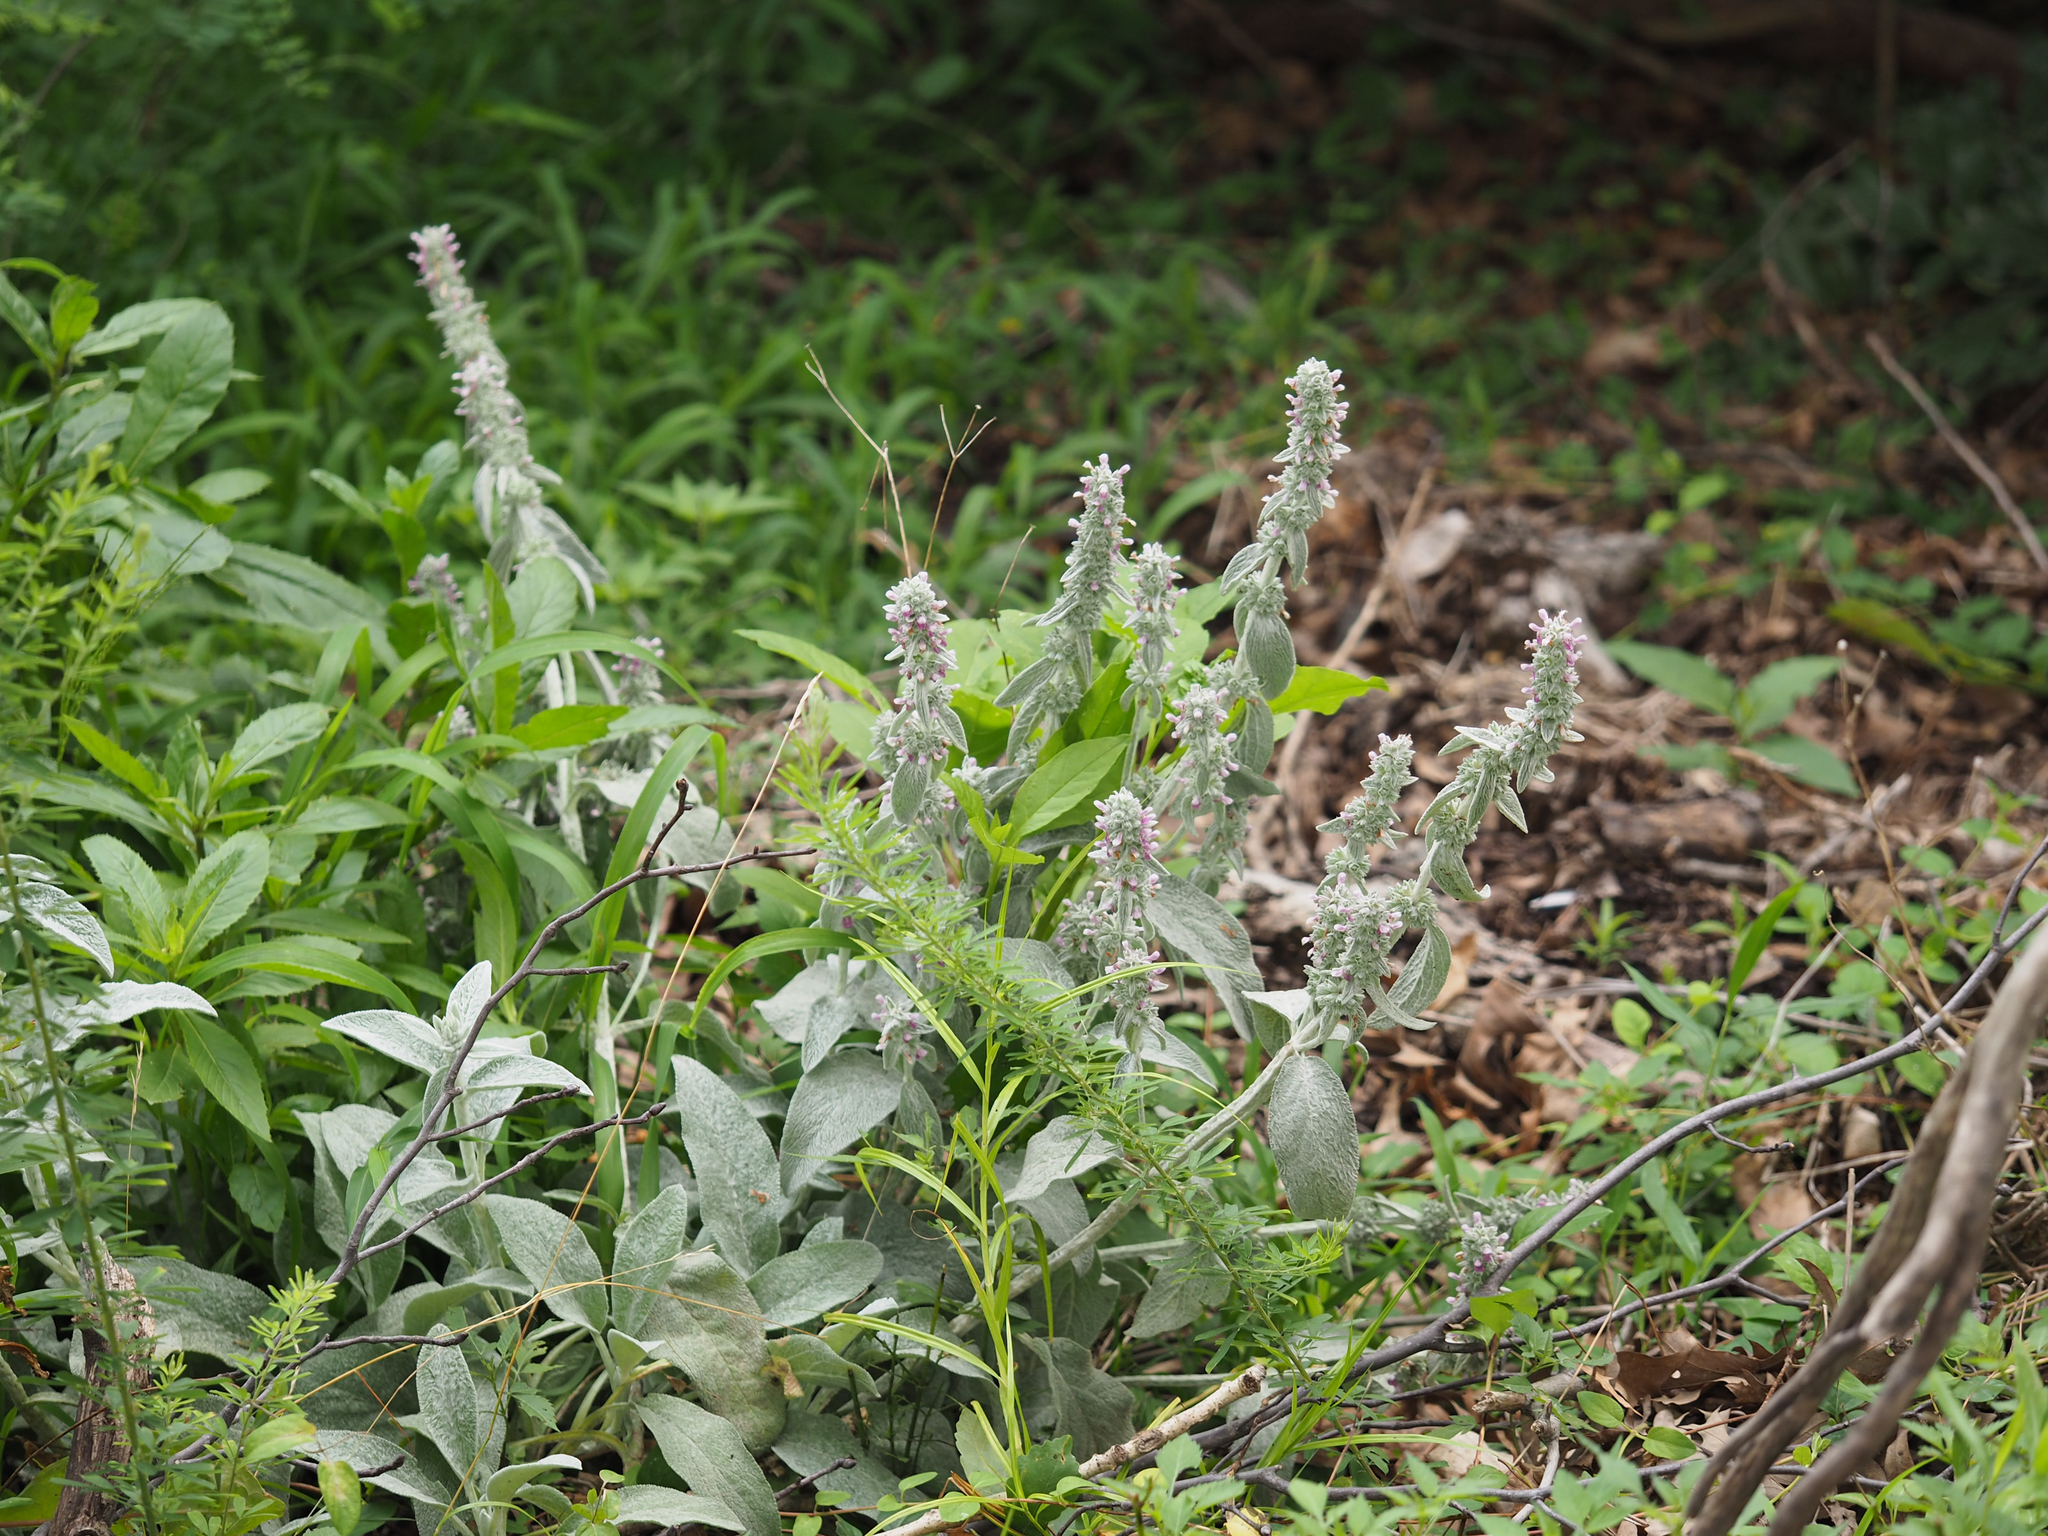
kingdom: Plantae
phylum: Tracheophyta
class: Magnoliopsida
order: Lamiales
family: Lamiaceae
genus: Stachys
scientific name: Stachys byzantina
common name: Lamb's-ear
